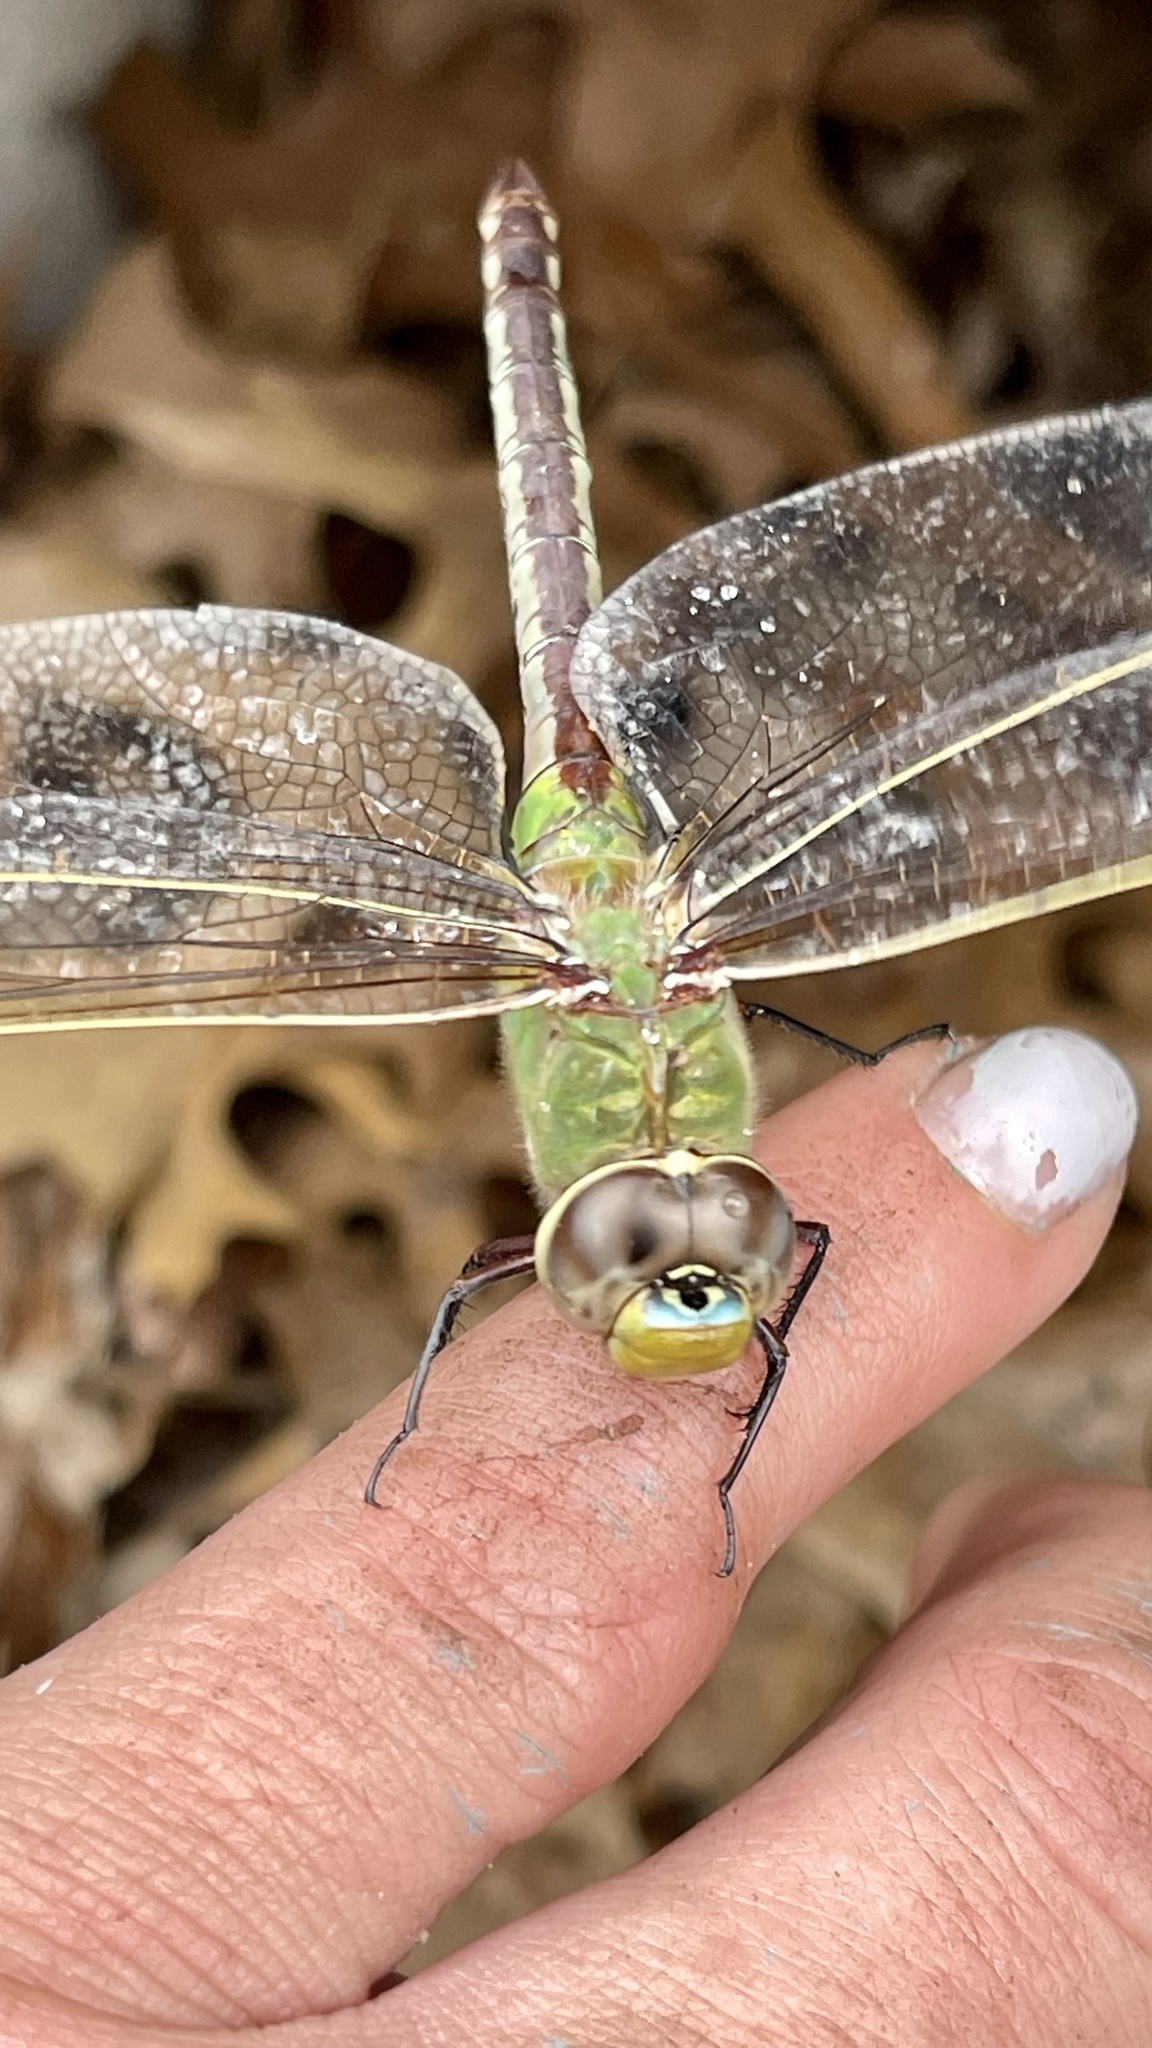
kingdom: Animalia
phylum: Arthropoda
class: Insecta
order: Odonata
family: Aeshnidae
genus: Anax
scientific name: Anax junius
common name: Common green darner
